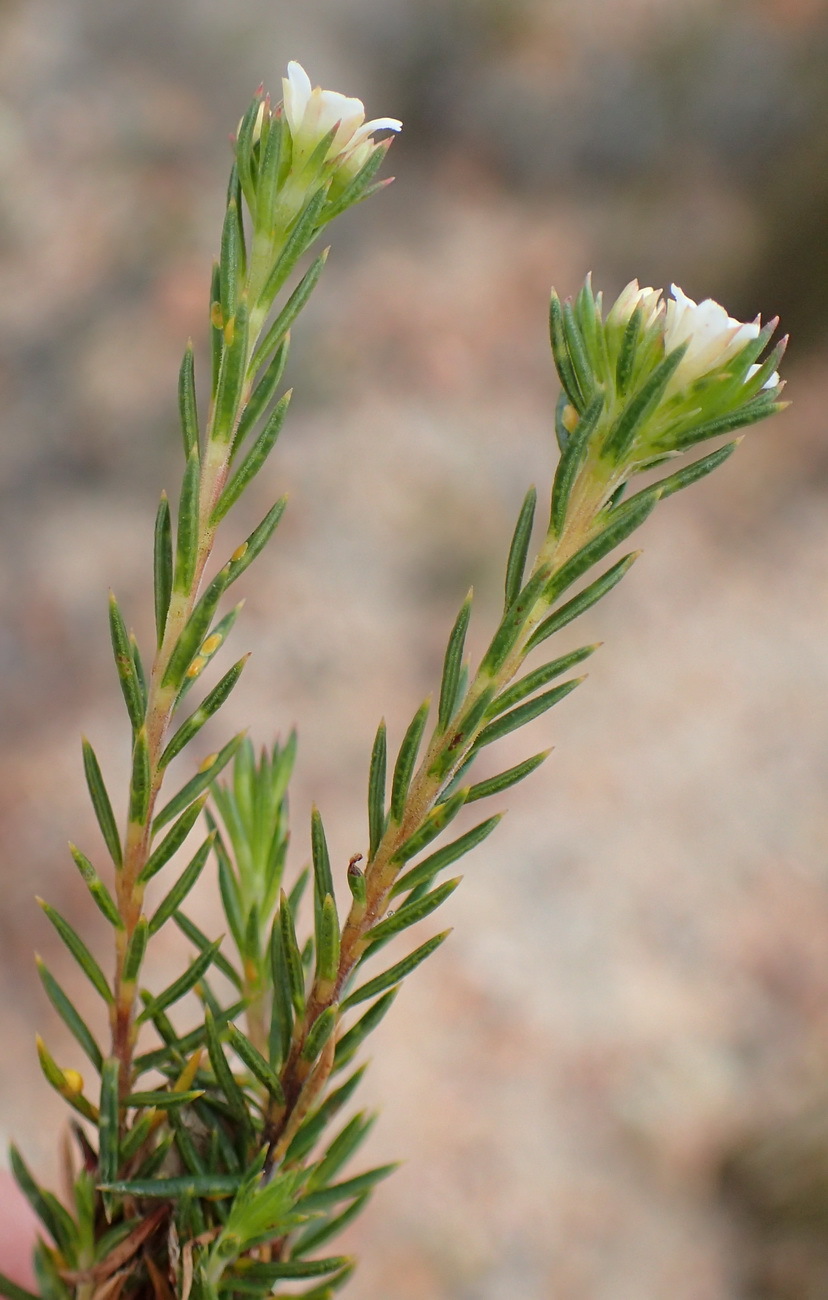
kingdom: Plantae
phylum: Tracheophyta
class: Magnoliopsida
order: Sapindales
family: Rutaceae
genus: Diosma
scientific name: Diosma rourkei
